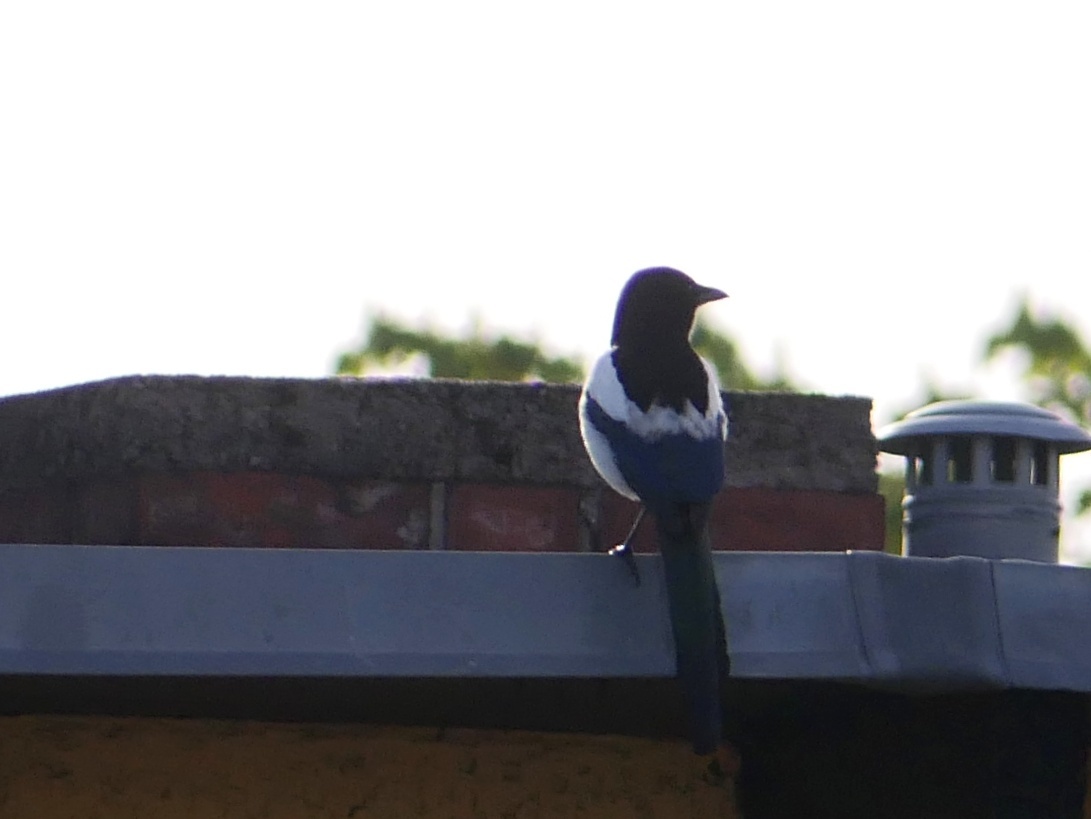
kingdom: Animalia
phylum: Chordata
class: Aves
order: Passeriformes
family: Corvidae
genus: Pica
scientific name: Pica pica
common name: Eurasian magpie
